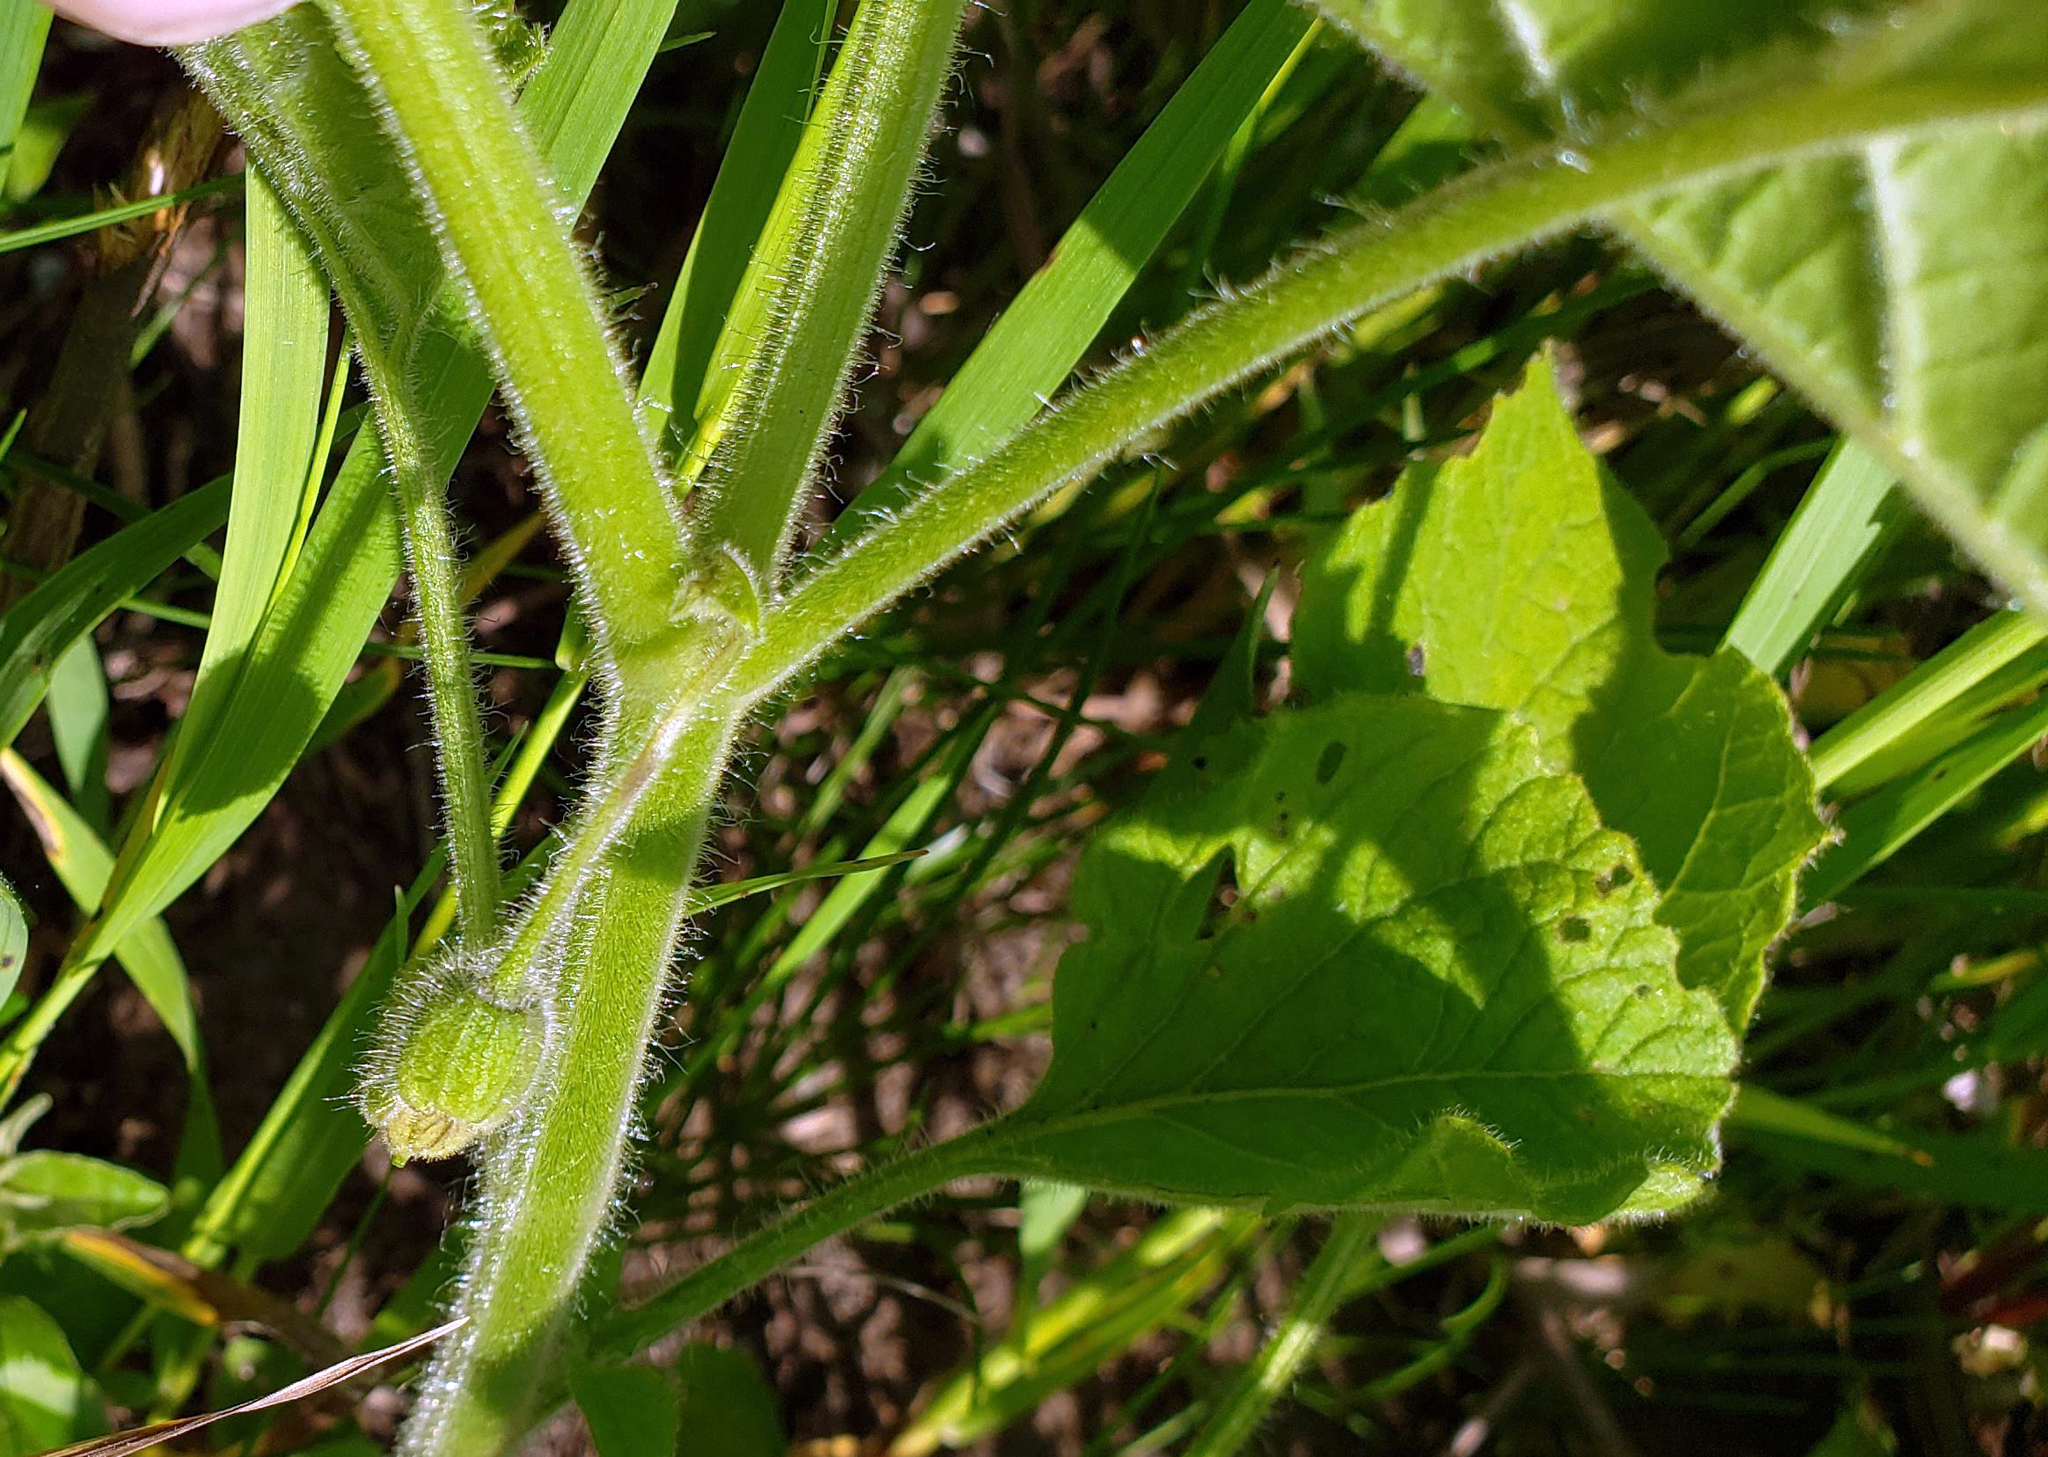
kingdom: Plantae
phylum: Tracheophyta
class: Magnoliopsida
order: Solanales
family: Solanaceae
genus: Physalis
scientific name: Physalis heterophylla
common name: Clammy ground-cherry
